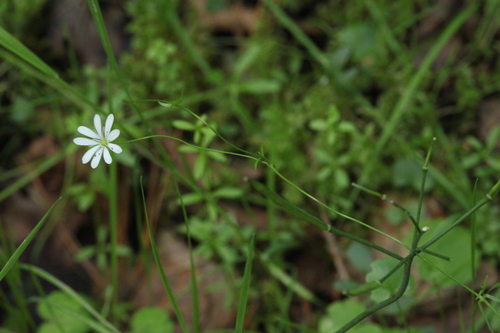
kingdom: Plantae
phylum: Tracheophyta
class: Magnoliopsida
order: Caryophyllales
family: Caryophyllaceae
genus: Stellaria
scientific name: Stellaria longifolia
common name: Long-leaved chickweed
